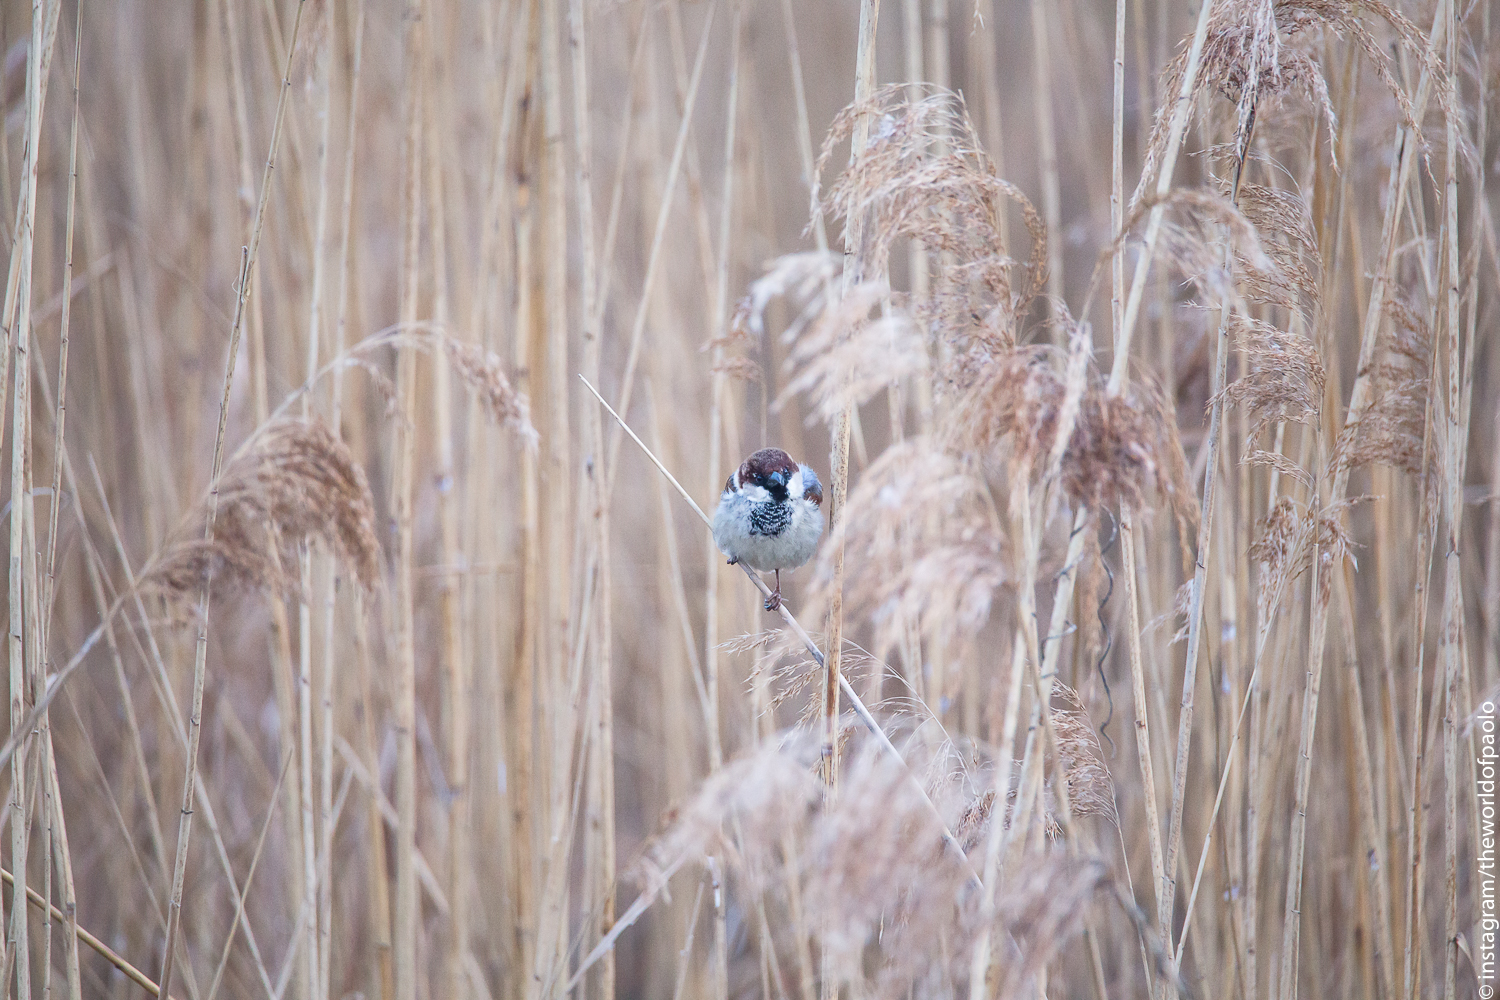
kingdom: Animalia
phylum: Chordata
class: Aves
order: Passeriformes
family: Passeridae
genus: Passer
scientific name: Passer italiae
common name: Italian sparrow
